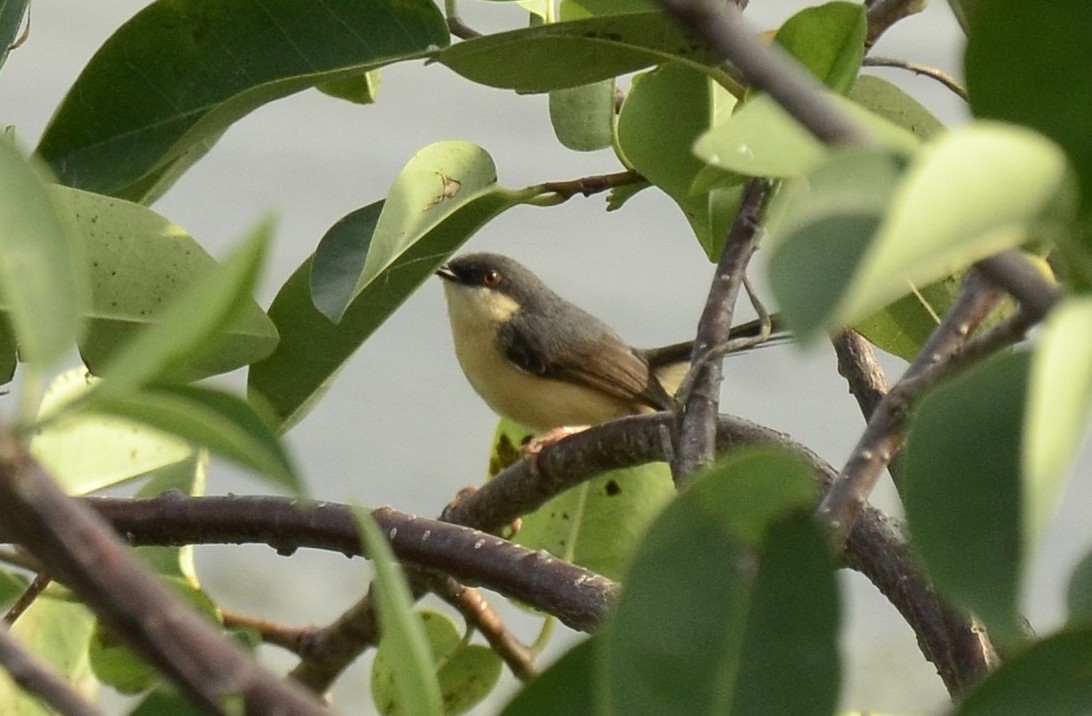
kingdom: Animalia
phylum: Chordata
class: Aves
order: Passeriformes
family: Cisticolidae
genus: Prinia
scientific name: Prinia socialis
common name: Ashy prinia
